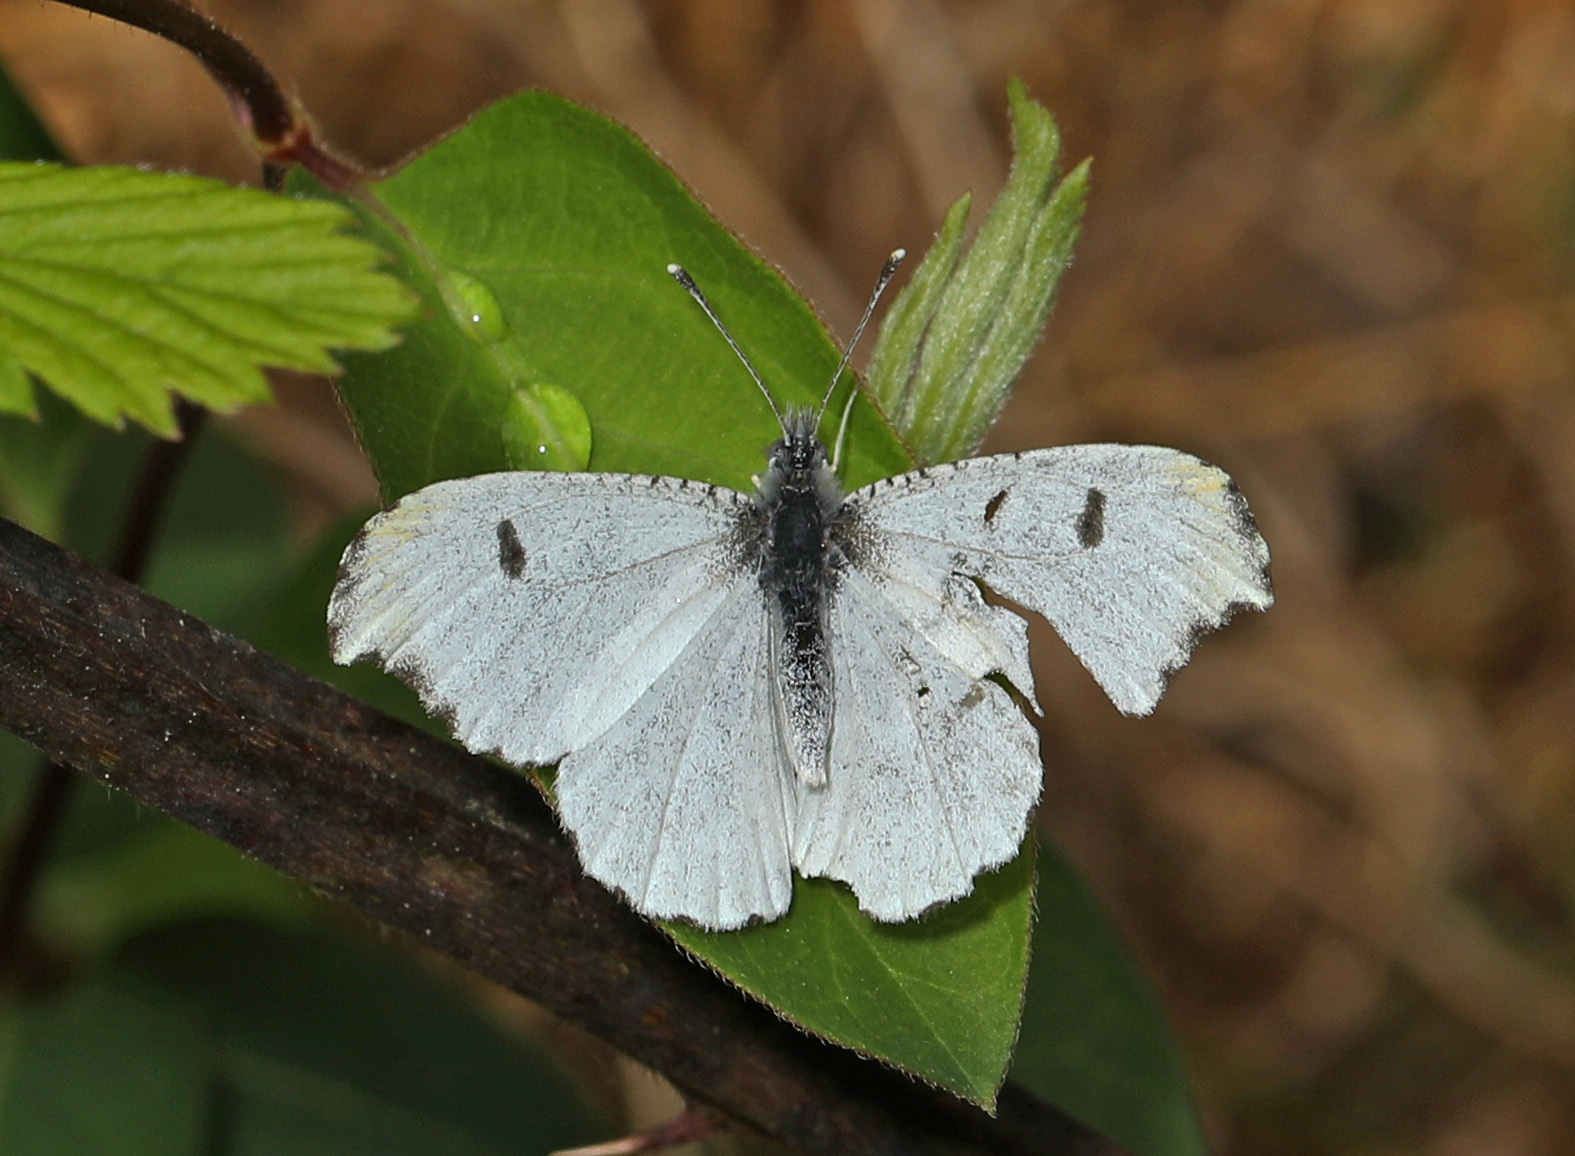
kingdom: Animalia
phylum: Arthropoda
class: Insecta
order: Lepidoptera
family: Pieridae
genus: Anthocharis
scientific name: Anthocharis midea
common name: Falcate orangetip
